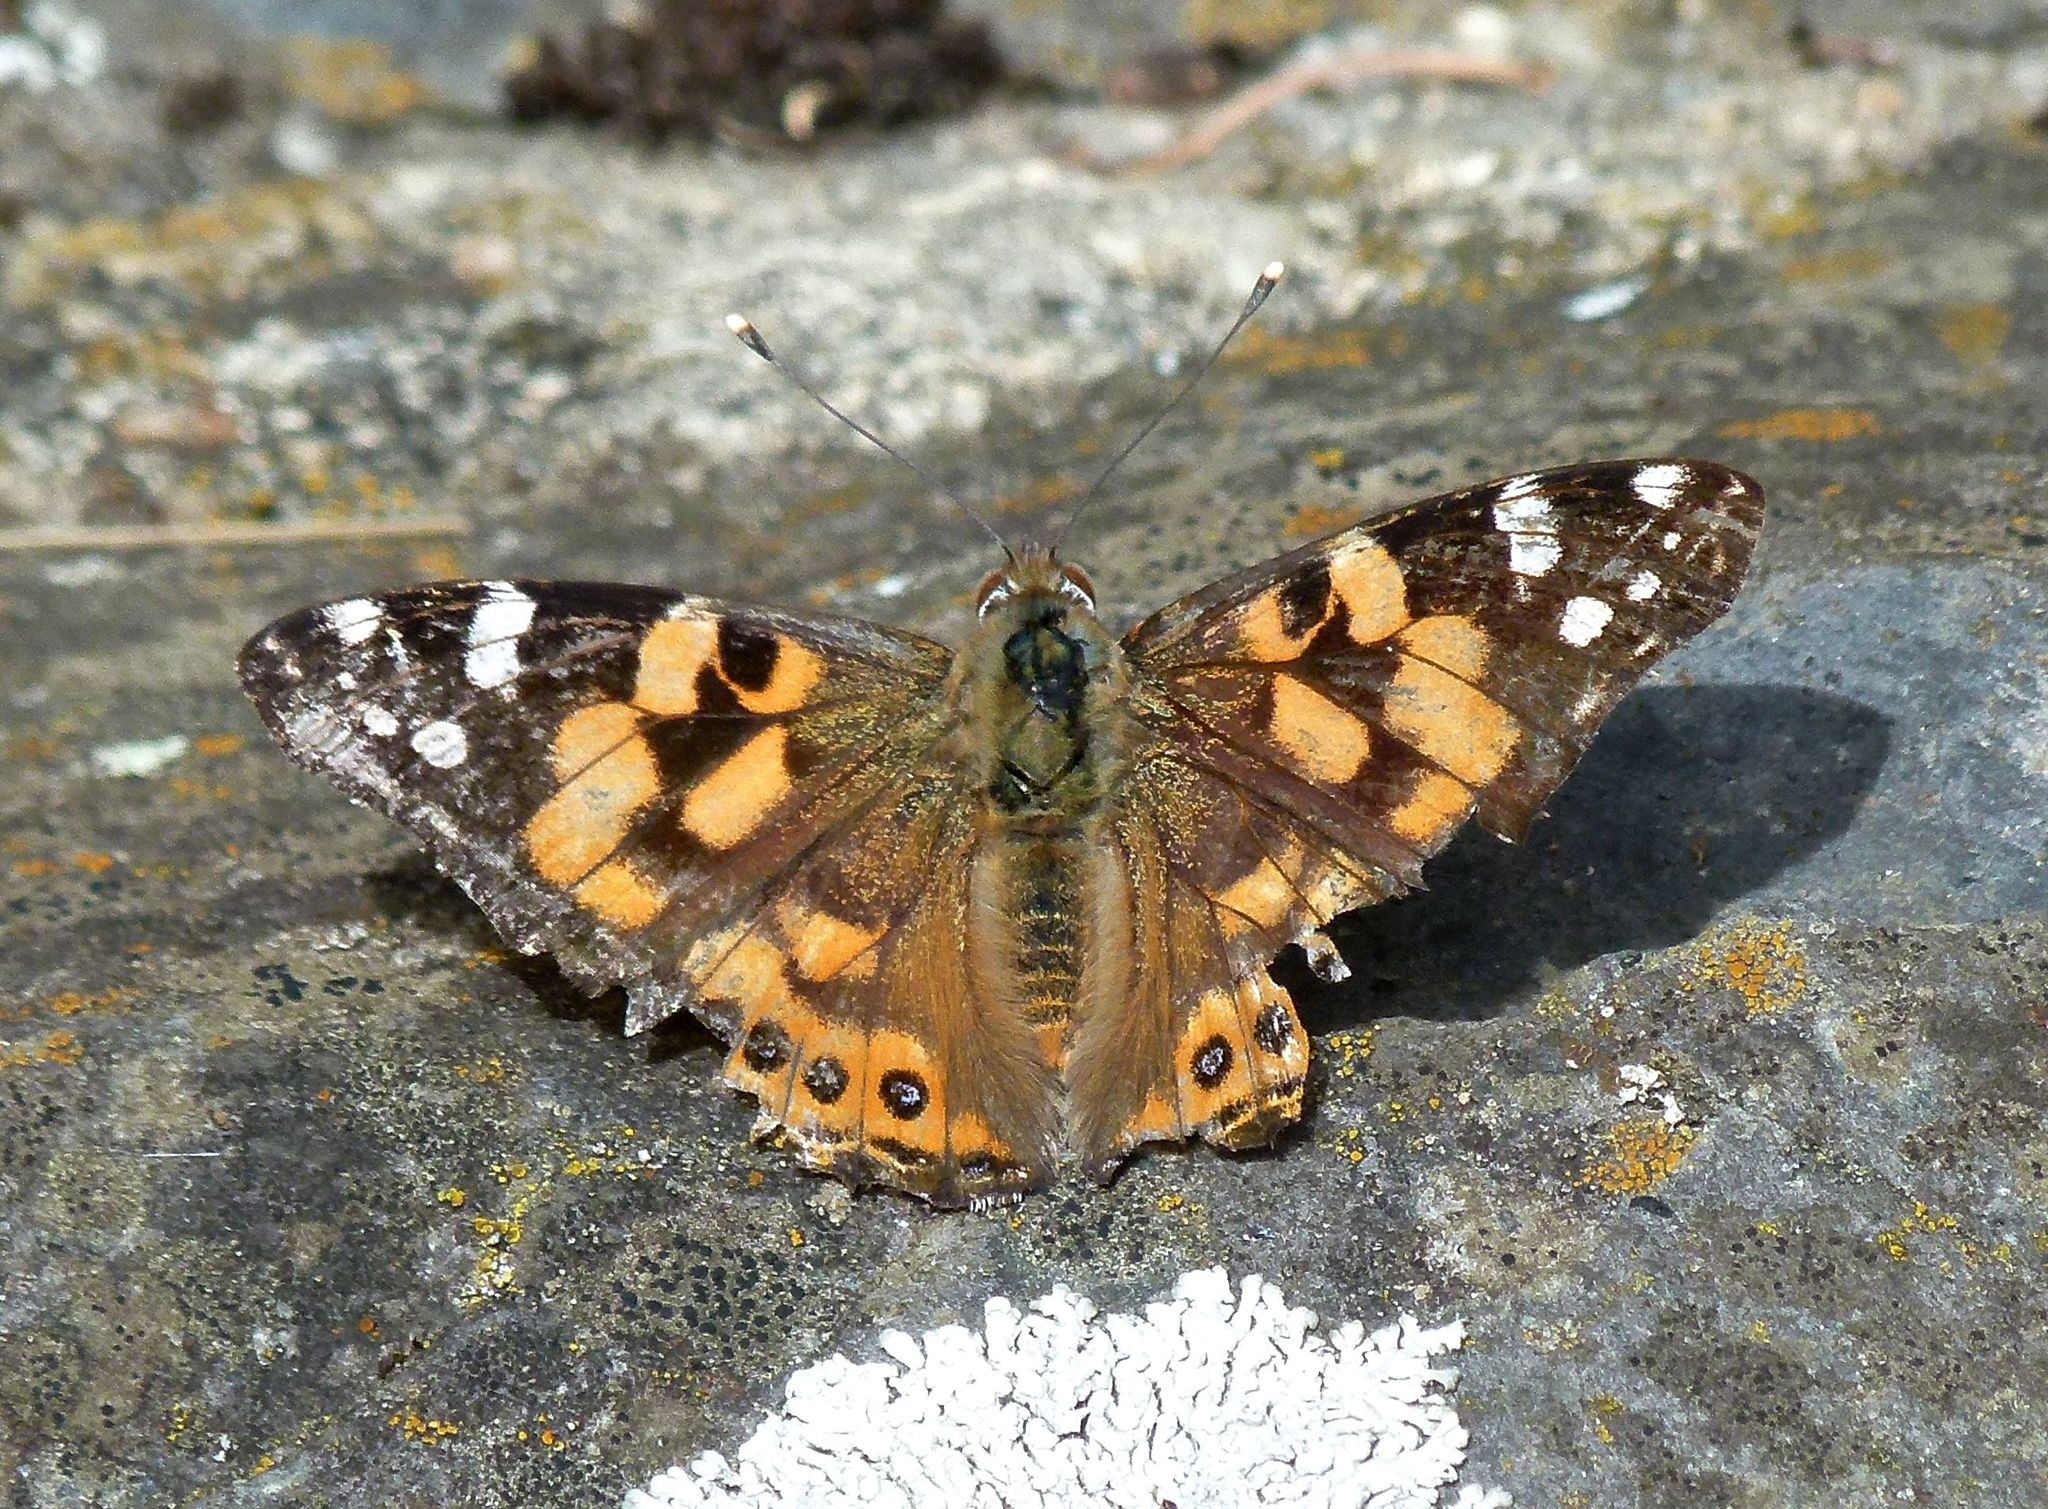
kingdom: Animalia
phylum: Arthropoda
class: Insecta
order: Lepidoptera
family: Nymphalidae
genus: Vanessa
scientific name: Vanessa kershawi
